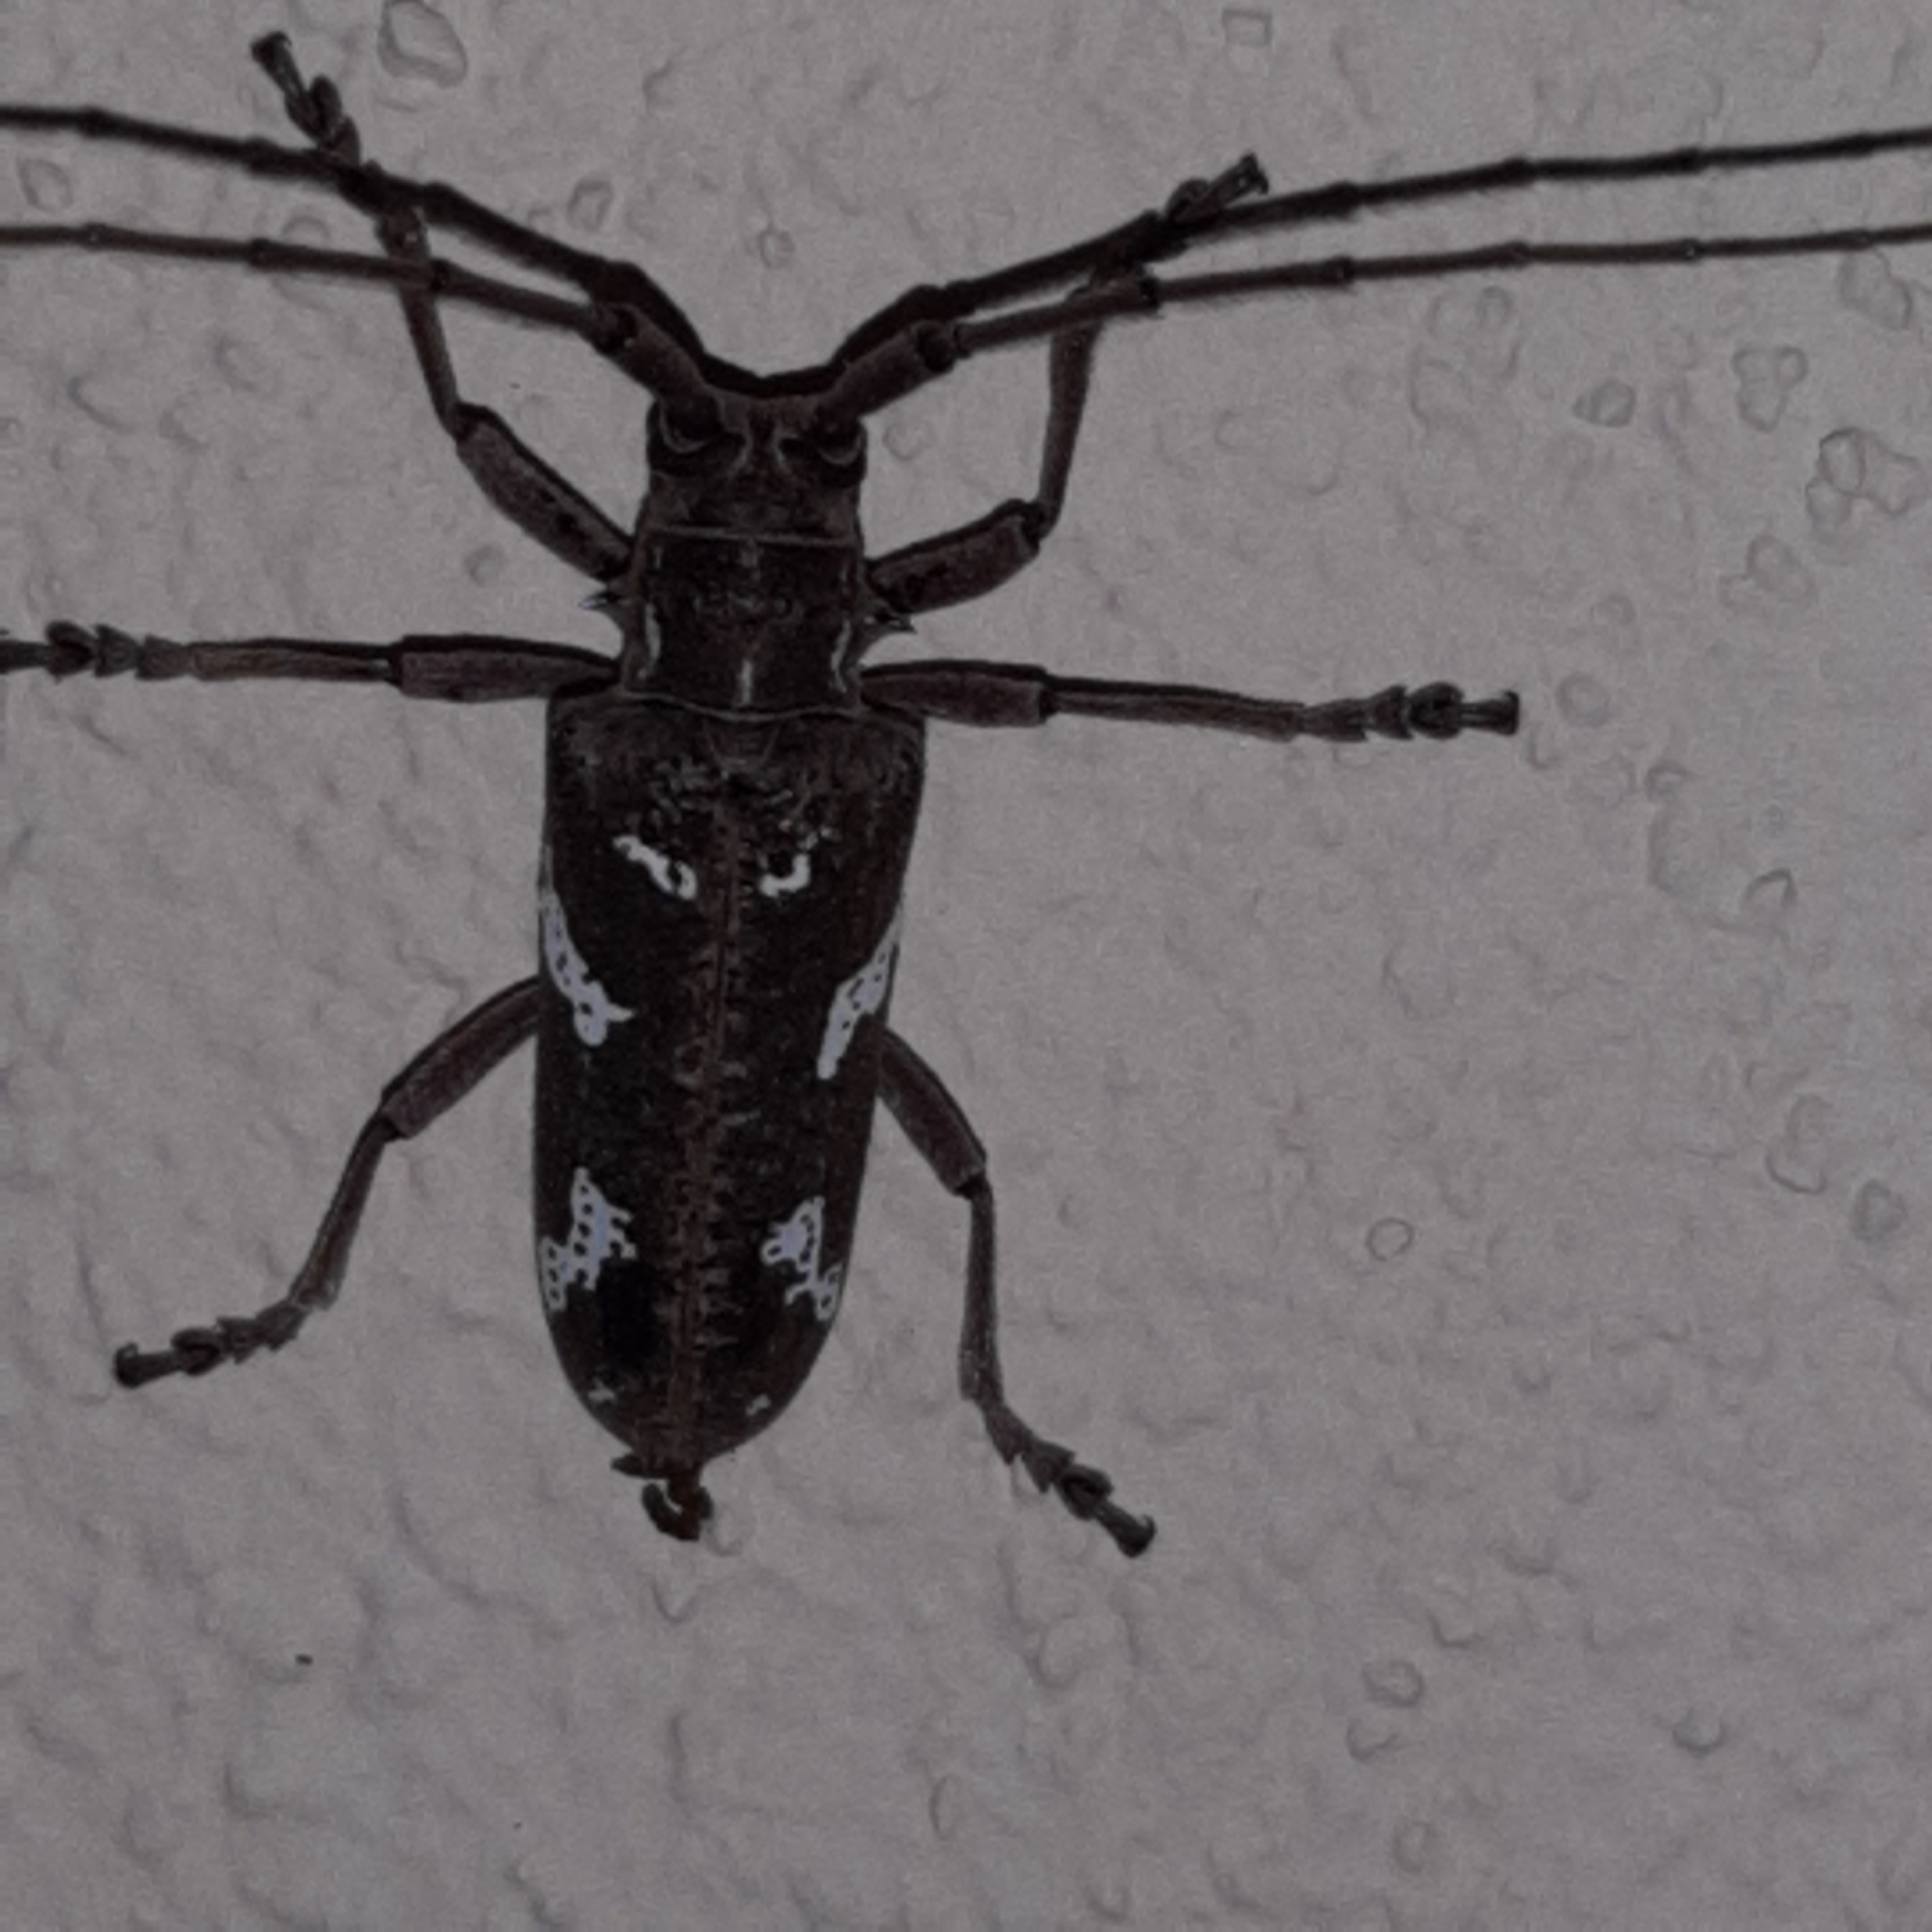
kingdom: Animalia
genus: Hammatoderus
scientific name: Hammatoderus thoracicus
